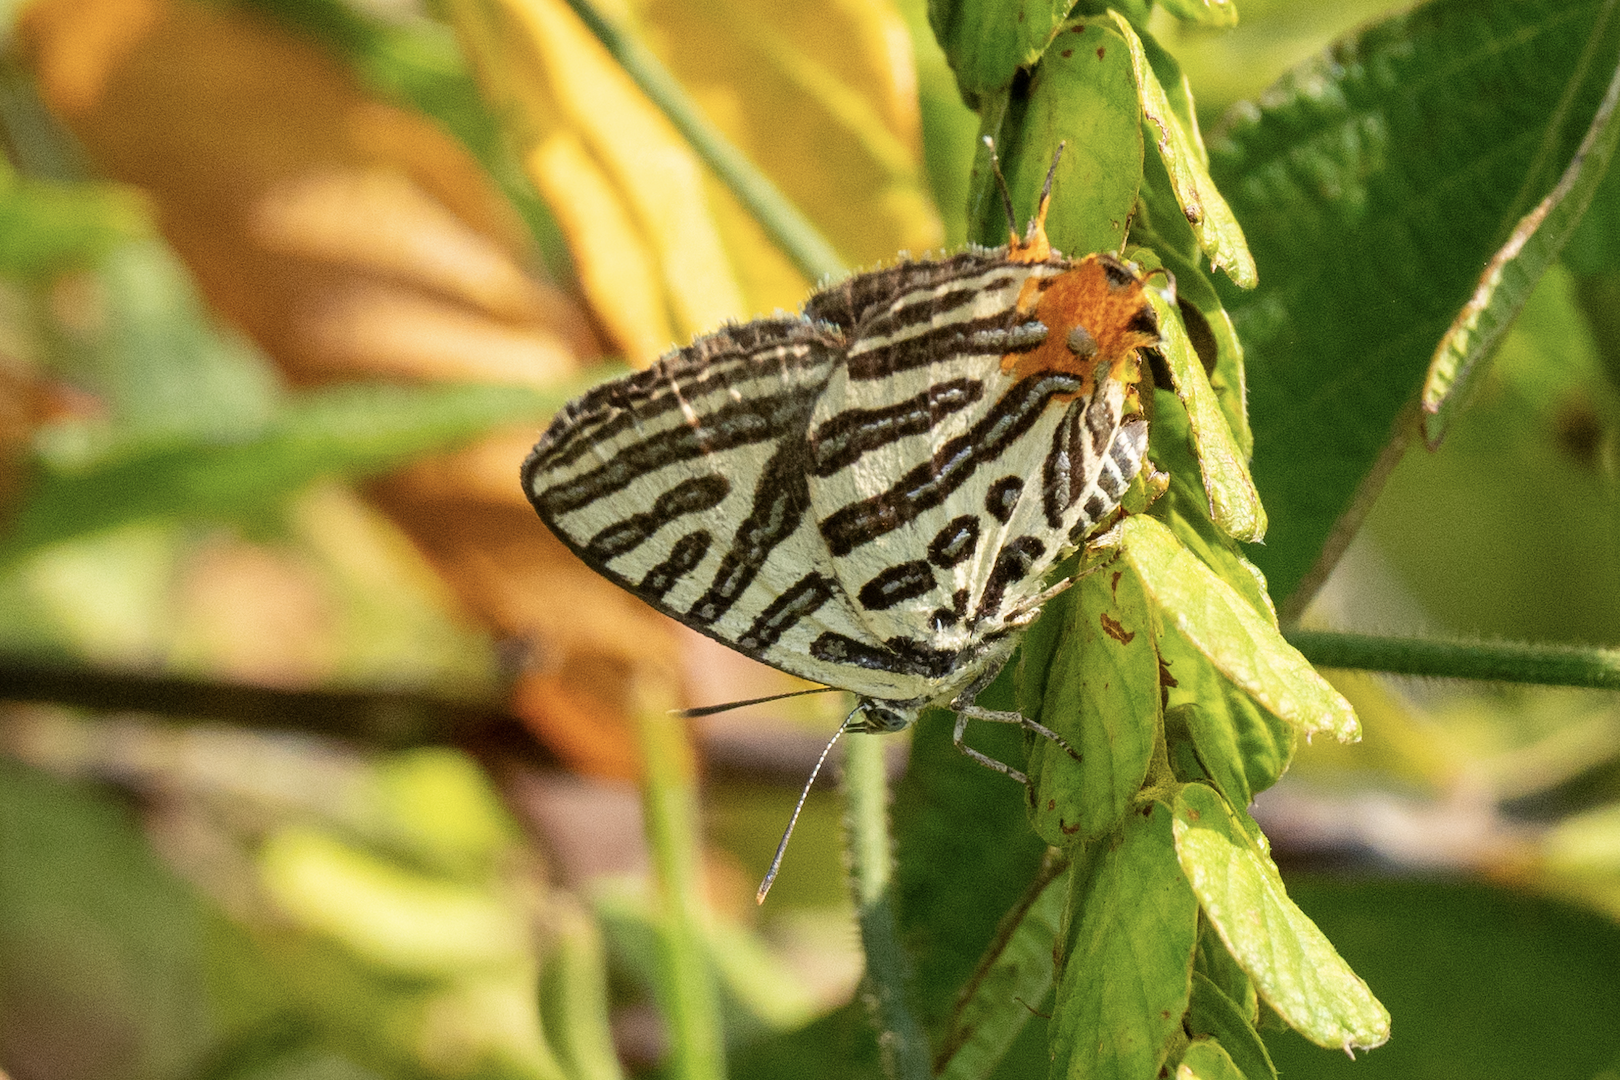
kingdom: Animalia
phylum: Arthropoda
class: Insecta
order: Lepidoptera
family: Lycaenidae
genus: Cigaritis
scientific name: Cigaritis syama
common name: Club silverline
